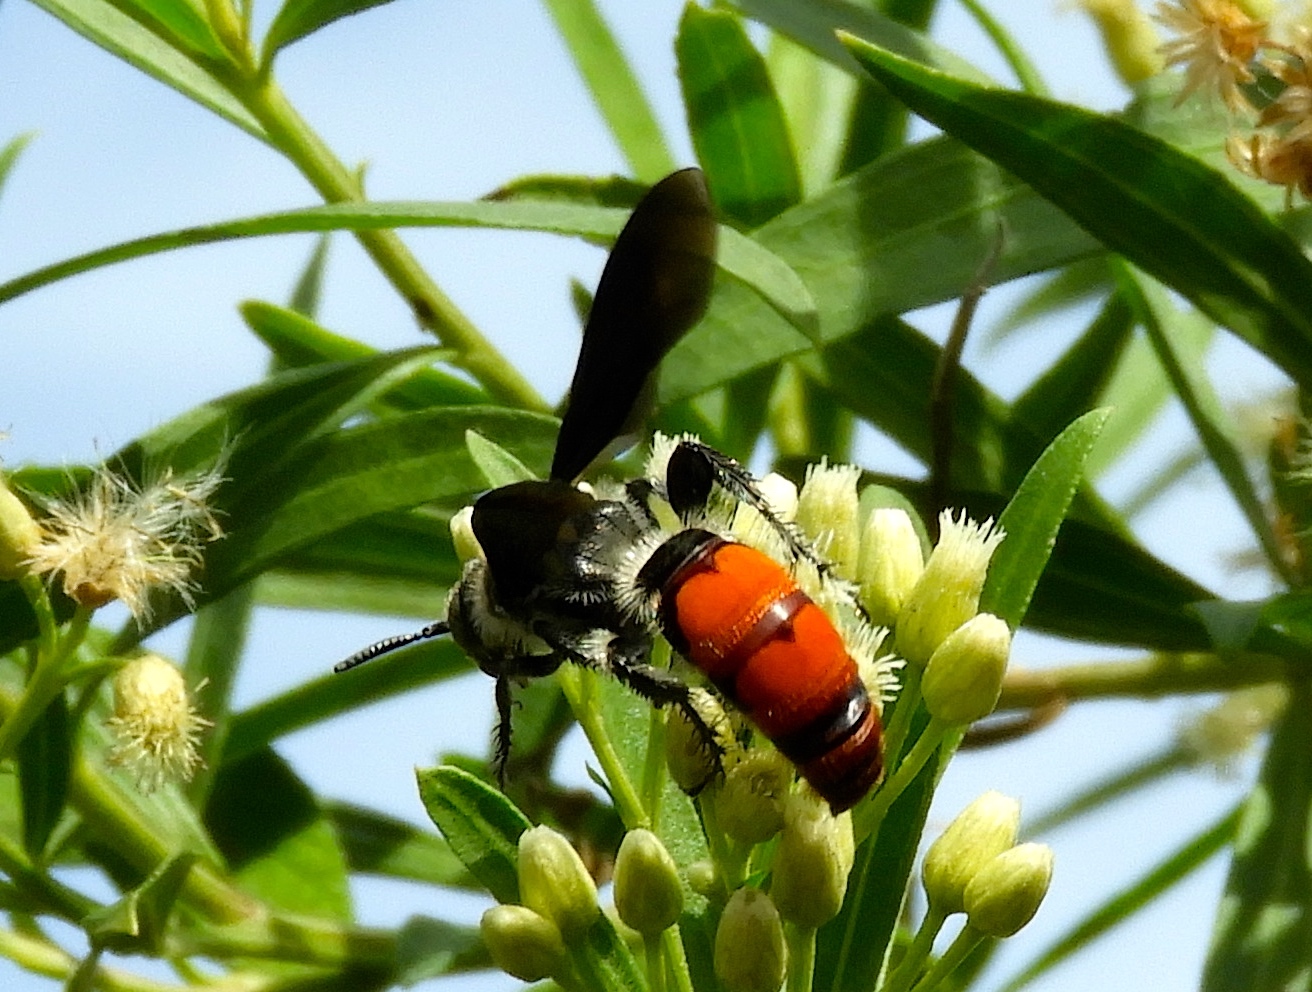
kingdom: Animalia
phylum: Arthropoda
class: Insecta
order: Hymenoptera
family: Scoliidae
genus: Dielis
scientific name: Dielis tolteca
